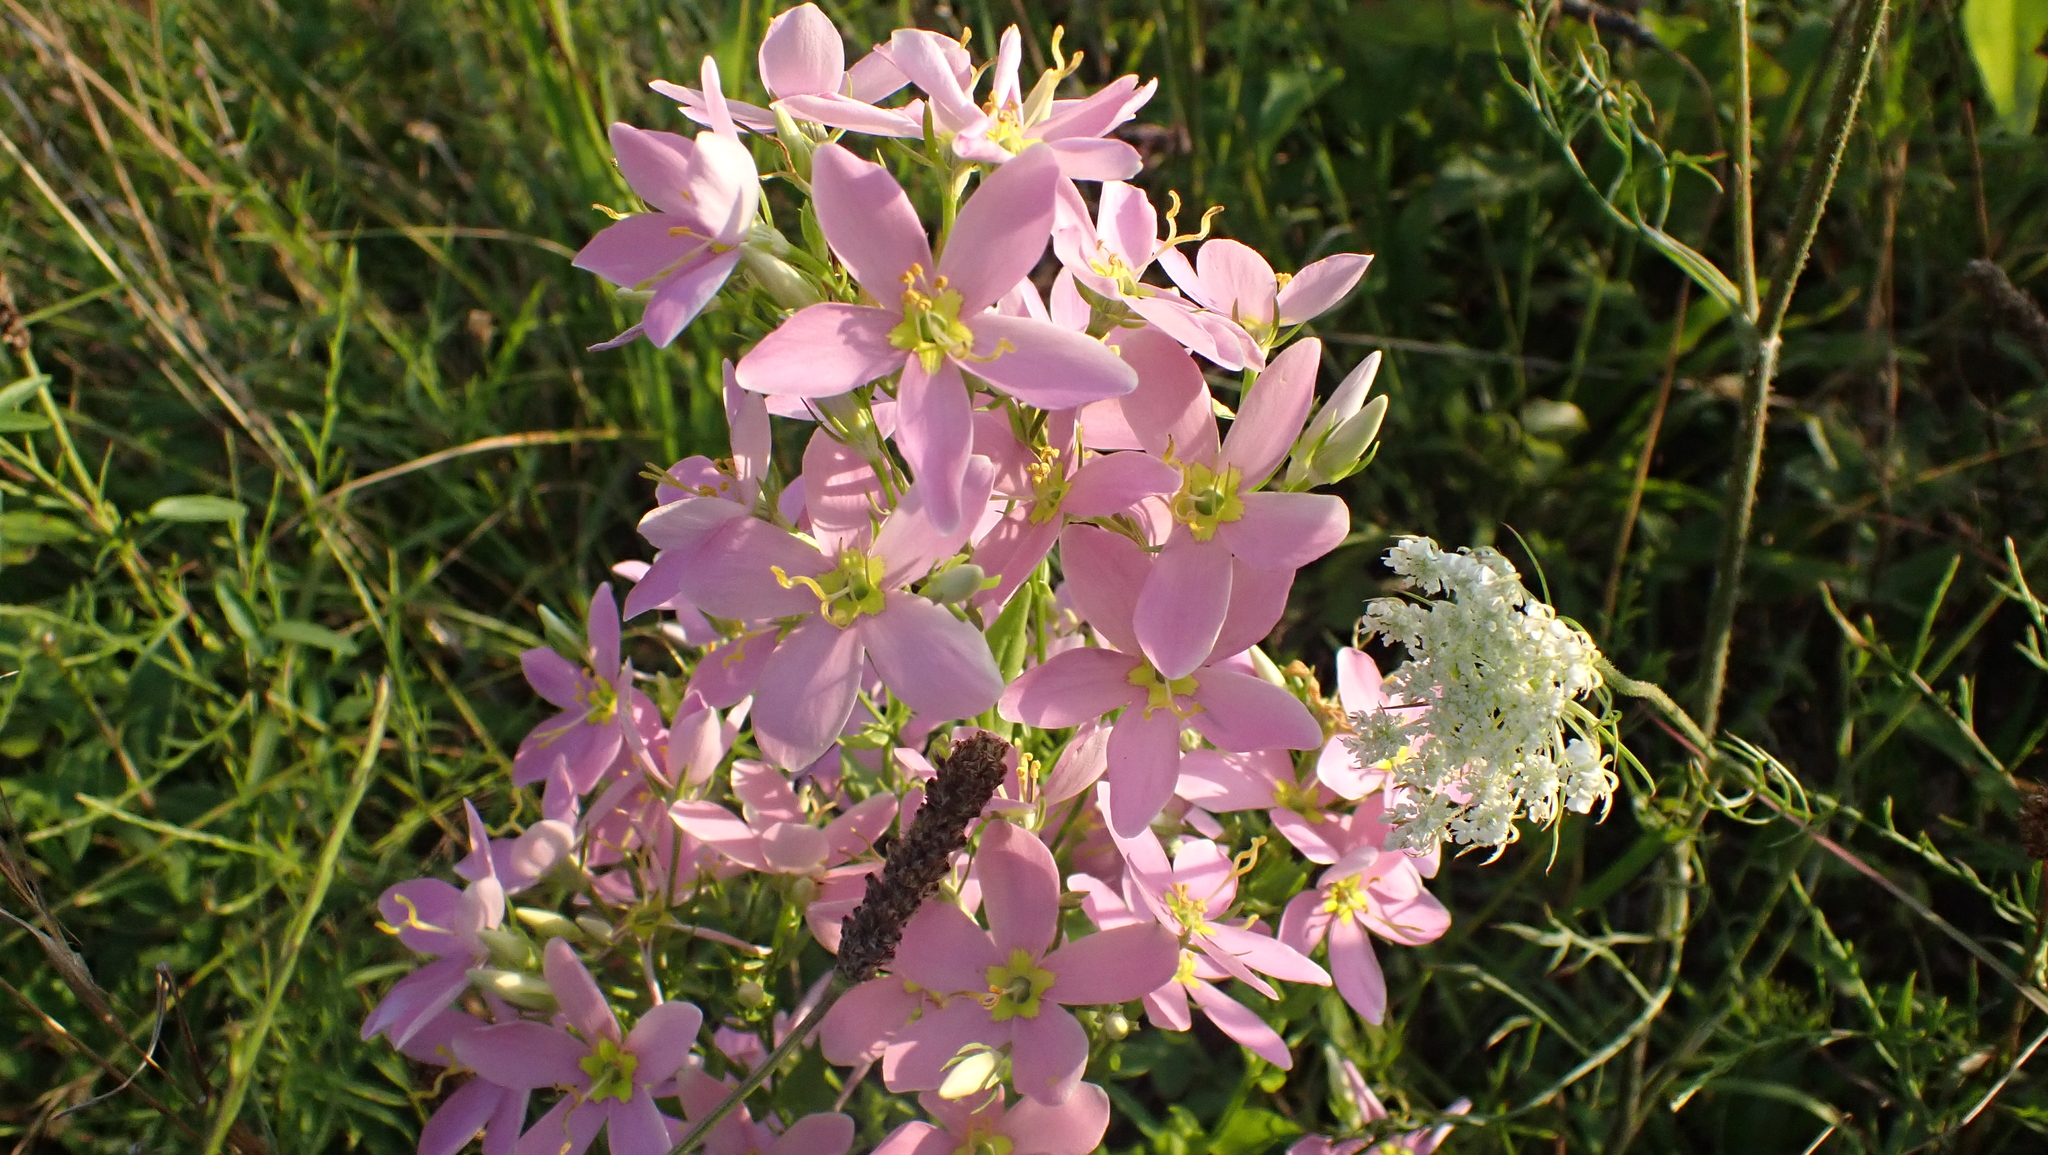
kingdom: Plantae
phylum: Tracheophyta
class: Magnoliopsida
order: Gentianales
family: Gentianaceae
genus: Sabatia
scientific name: Sabatia angularis
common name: Rose-pink
